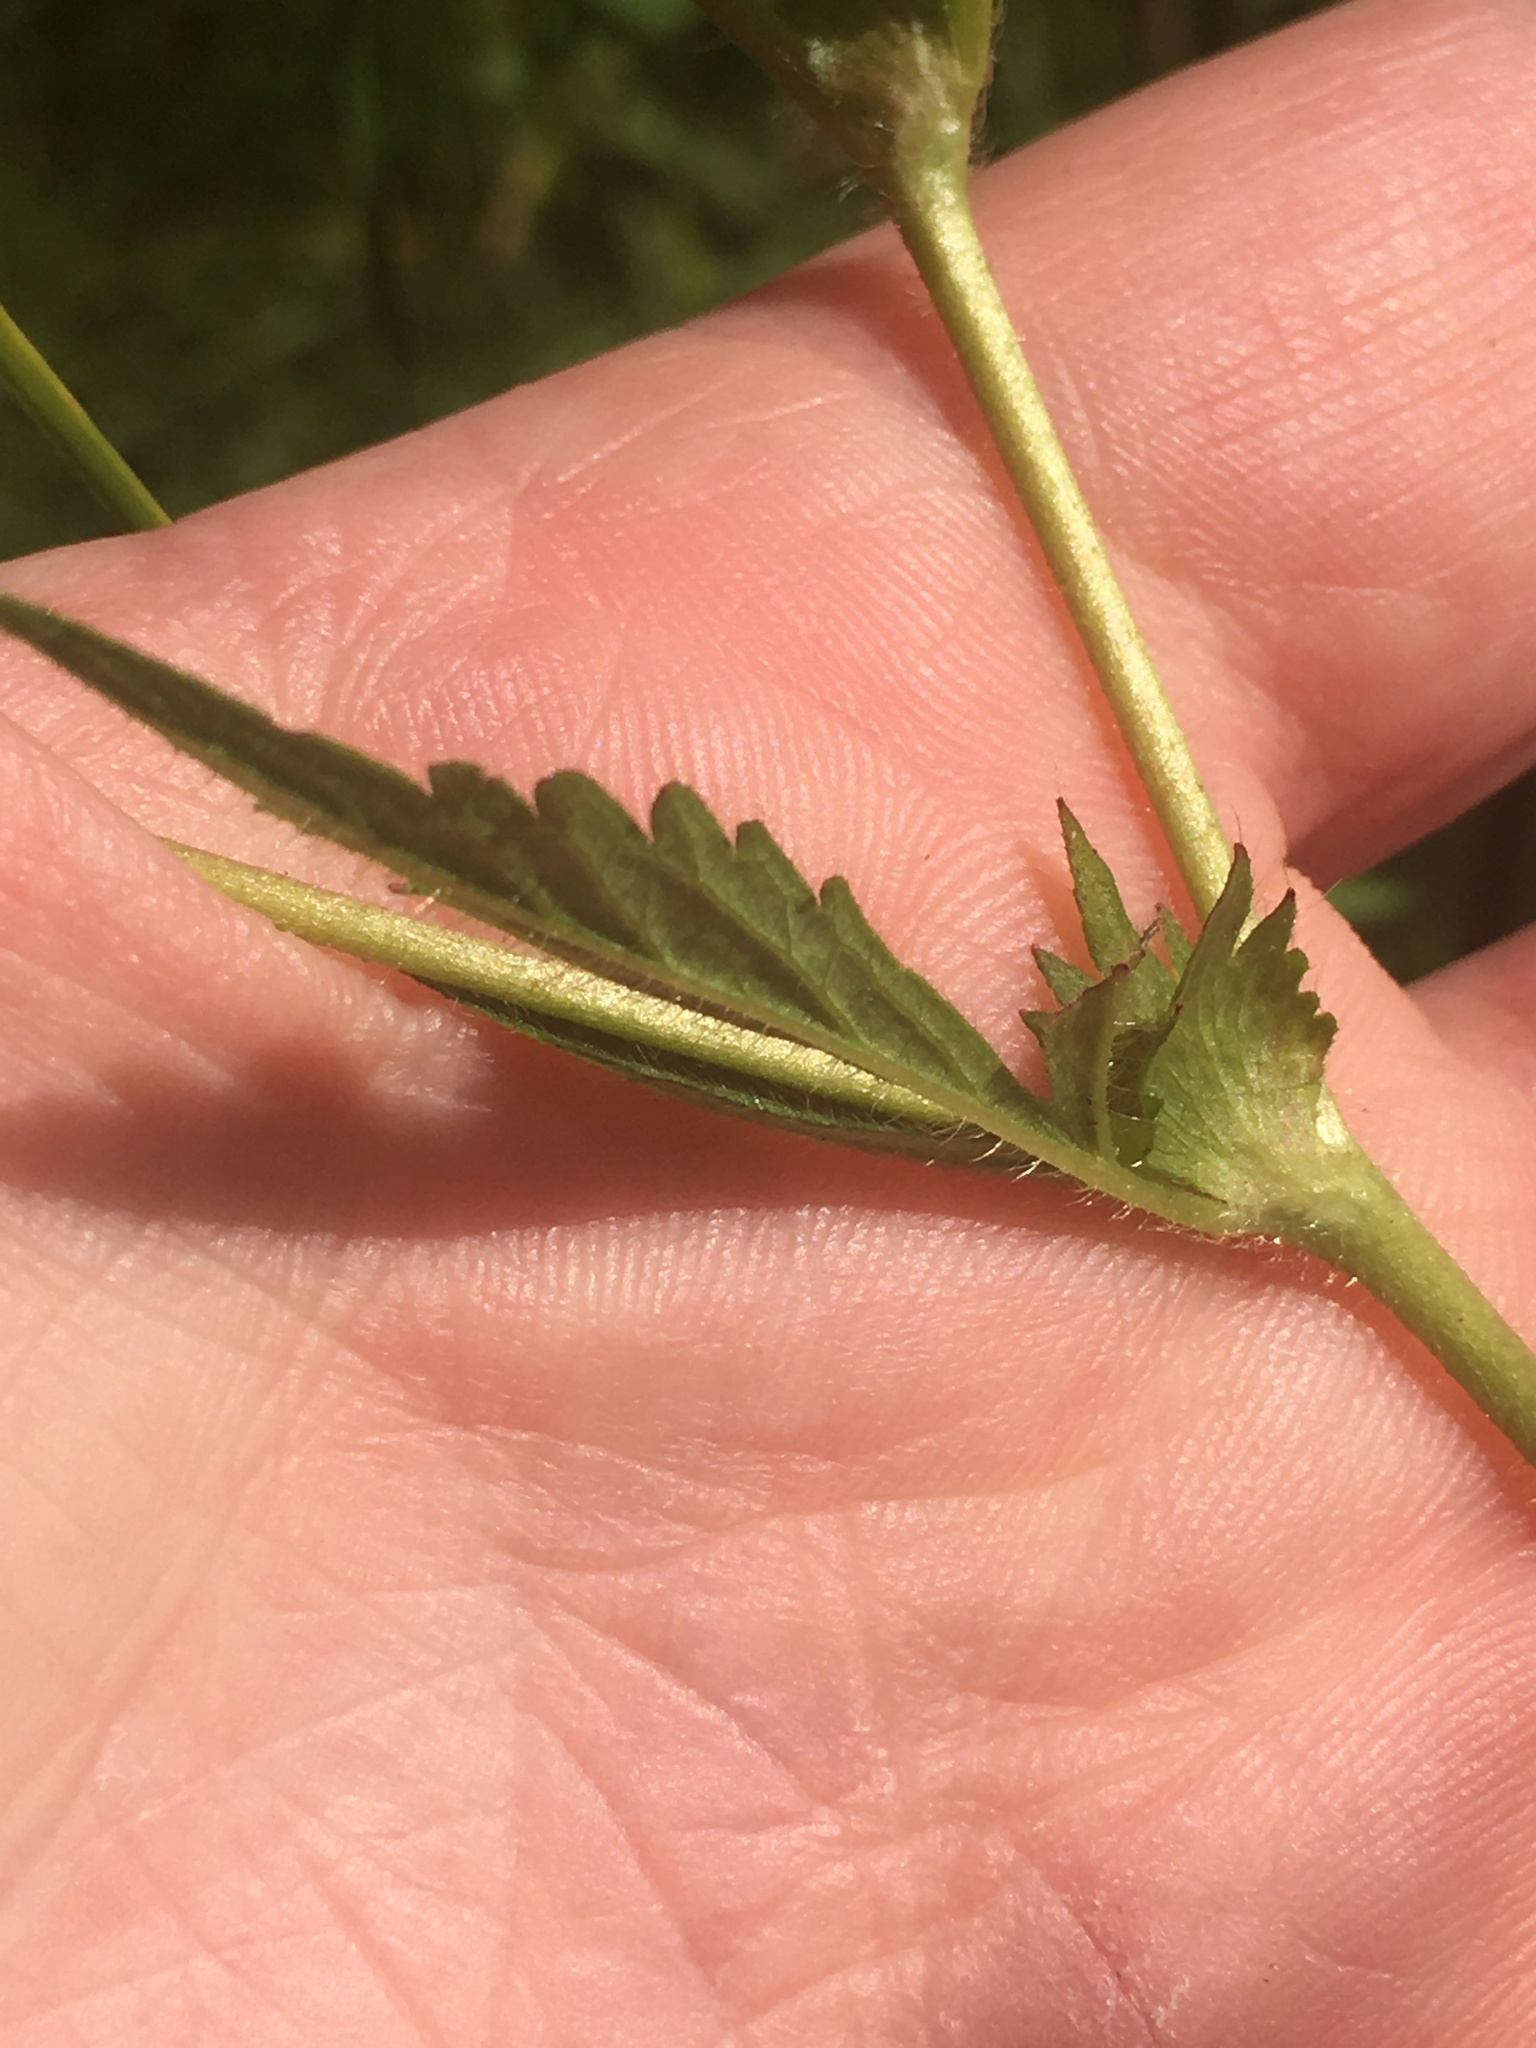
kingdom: Plantae
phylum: Tracheophyta
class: Magnoliopsida
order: Rosales
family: Rosaceae
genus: Geum
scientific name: Geum aleppicum
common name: Yellow avens
